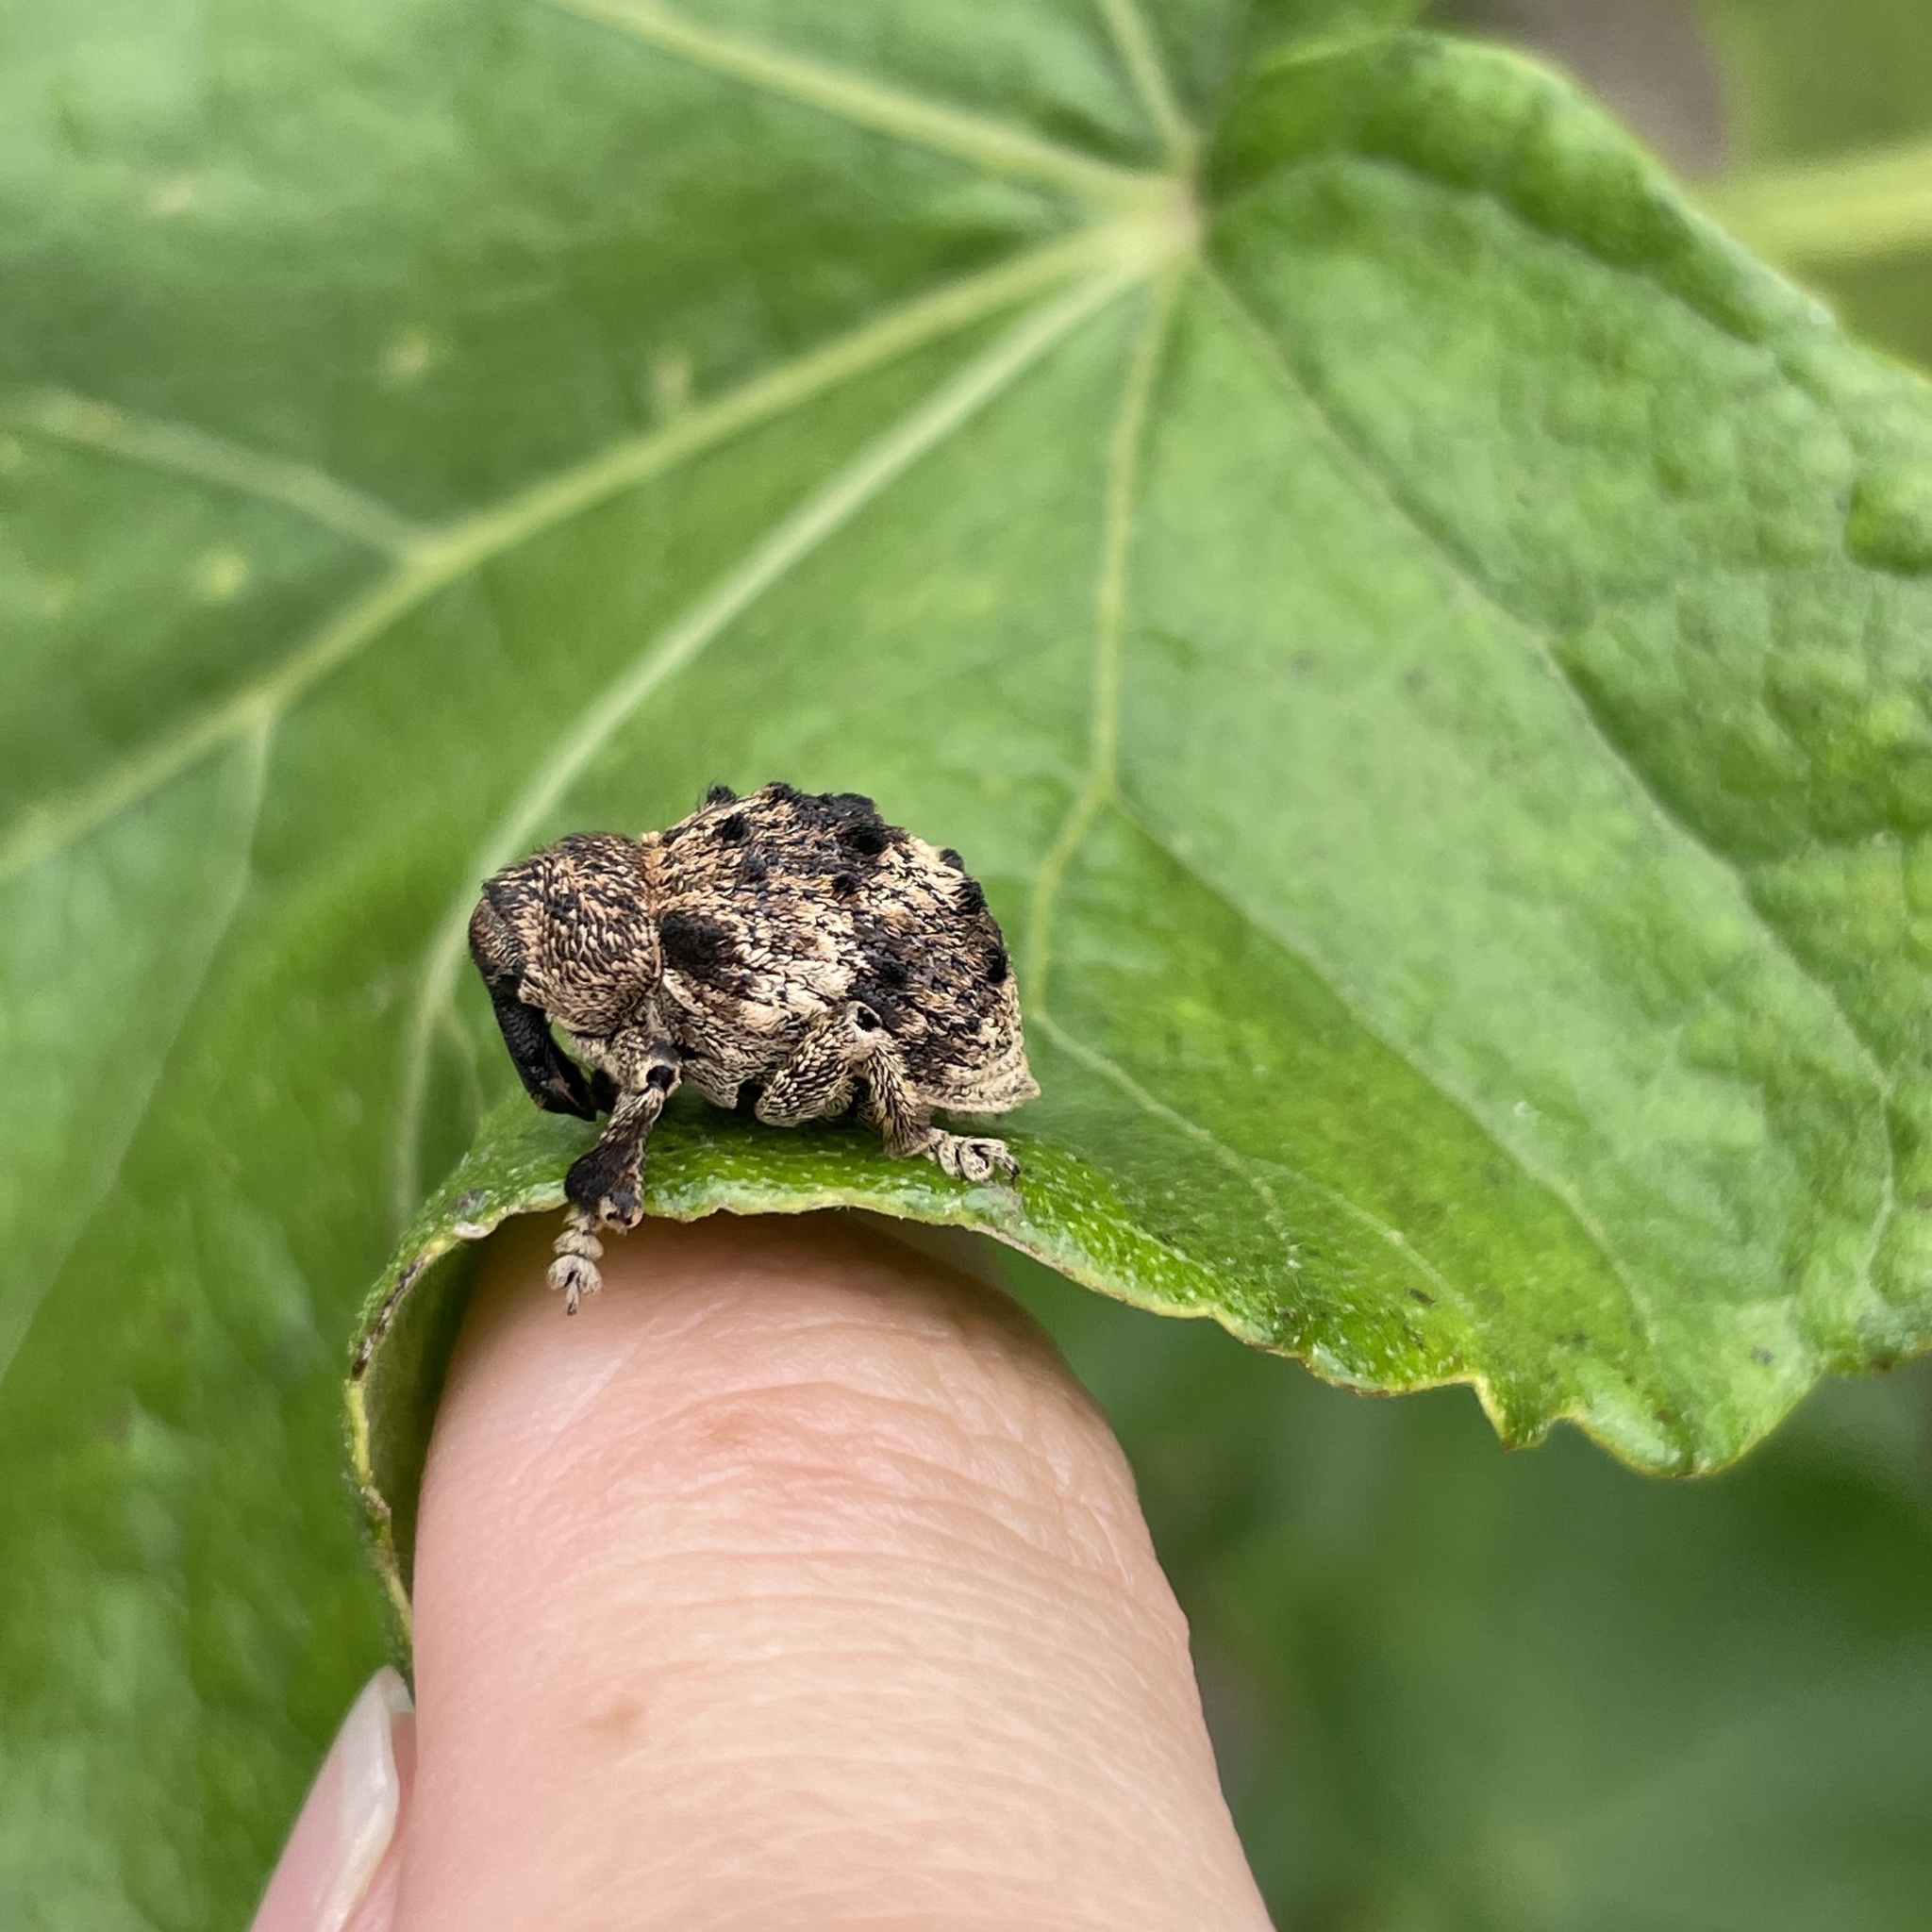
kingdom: Animalia
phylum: Arthropoda
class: Insecta
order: Coleoptera
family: Brachyceridae
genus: Desmidophorus
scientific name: Desmidophorus crassus
